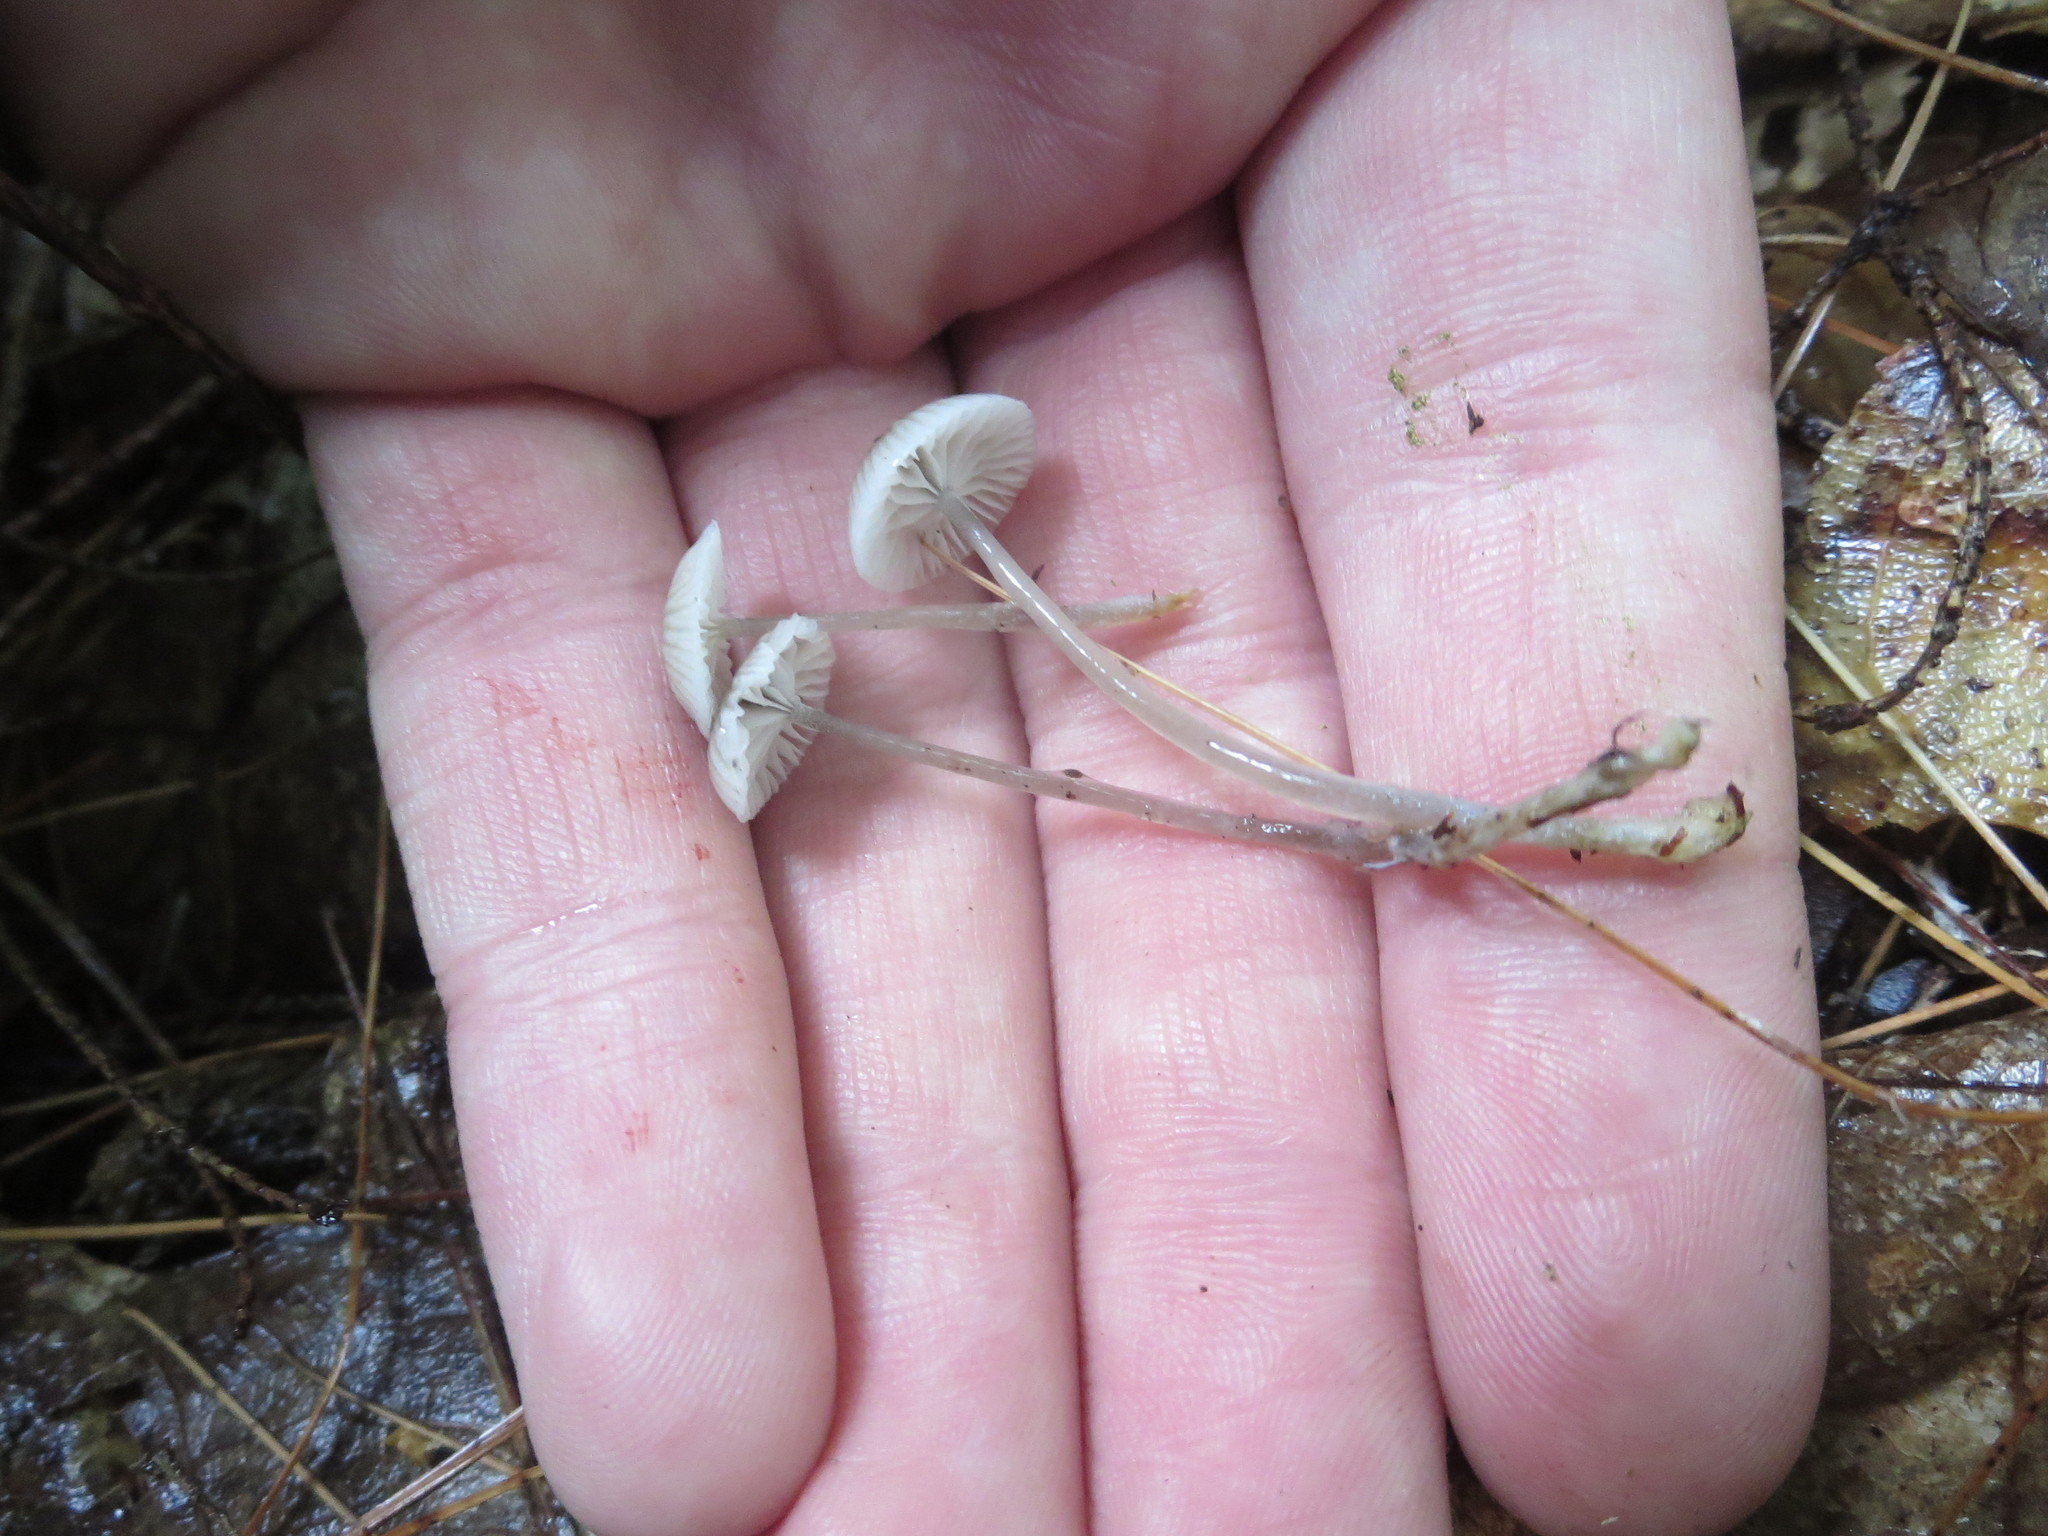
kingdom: Fungi
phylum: Basidiomycota
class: Agaricomycetes
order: Agaricales
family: Mycenaceae
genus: Roridomyces
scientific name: Roridomyces roridus
